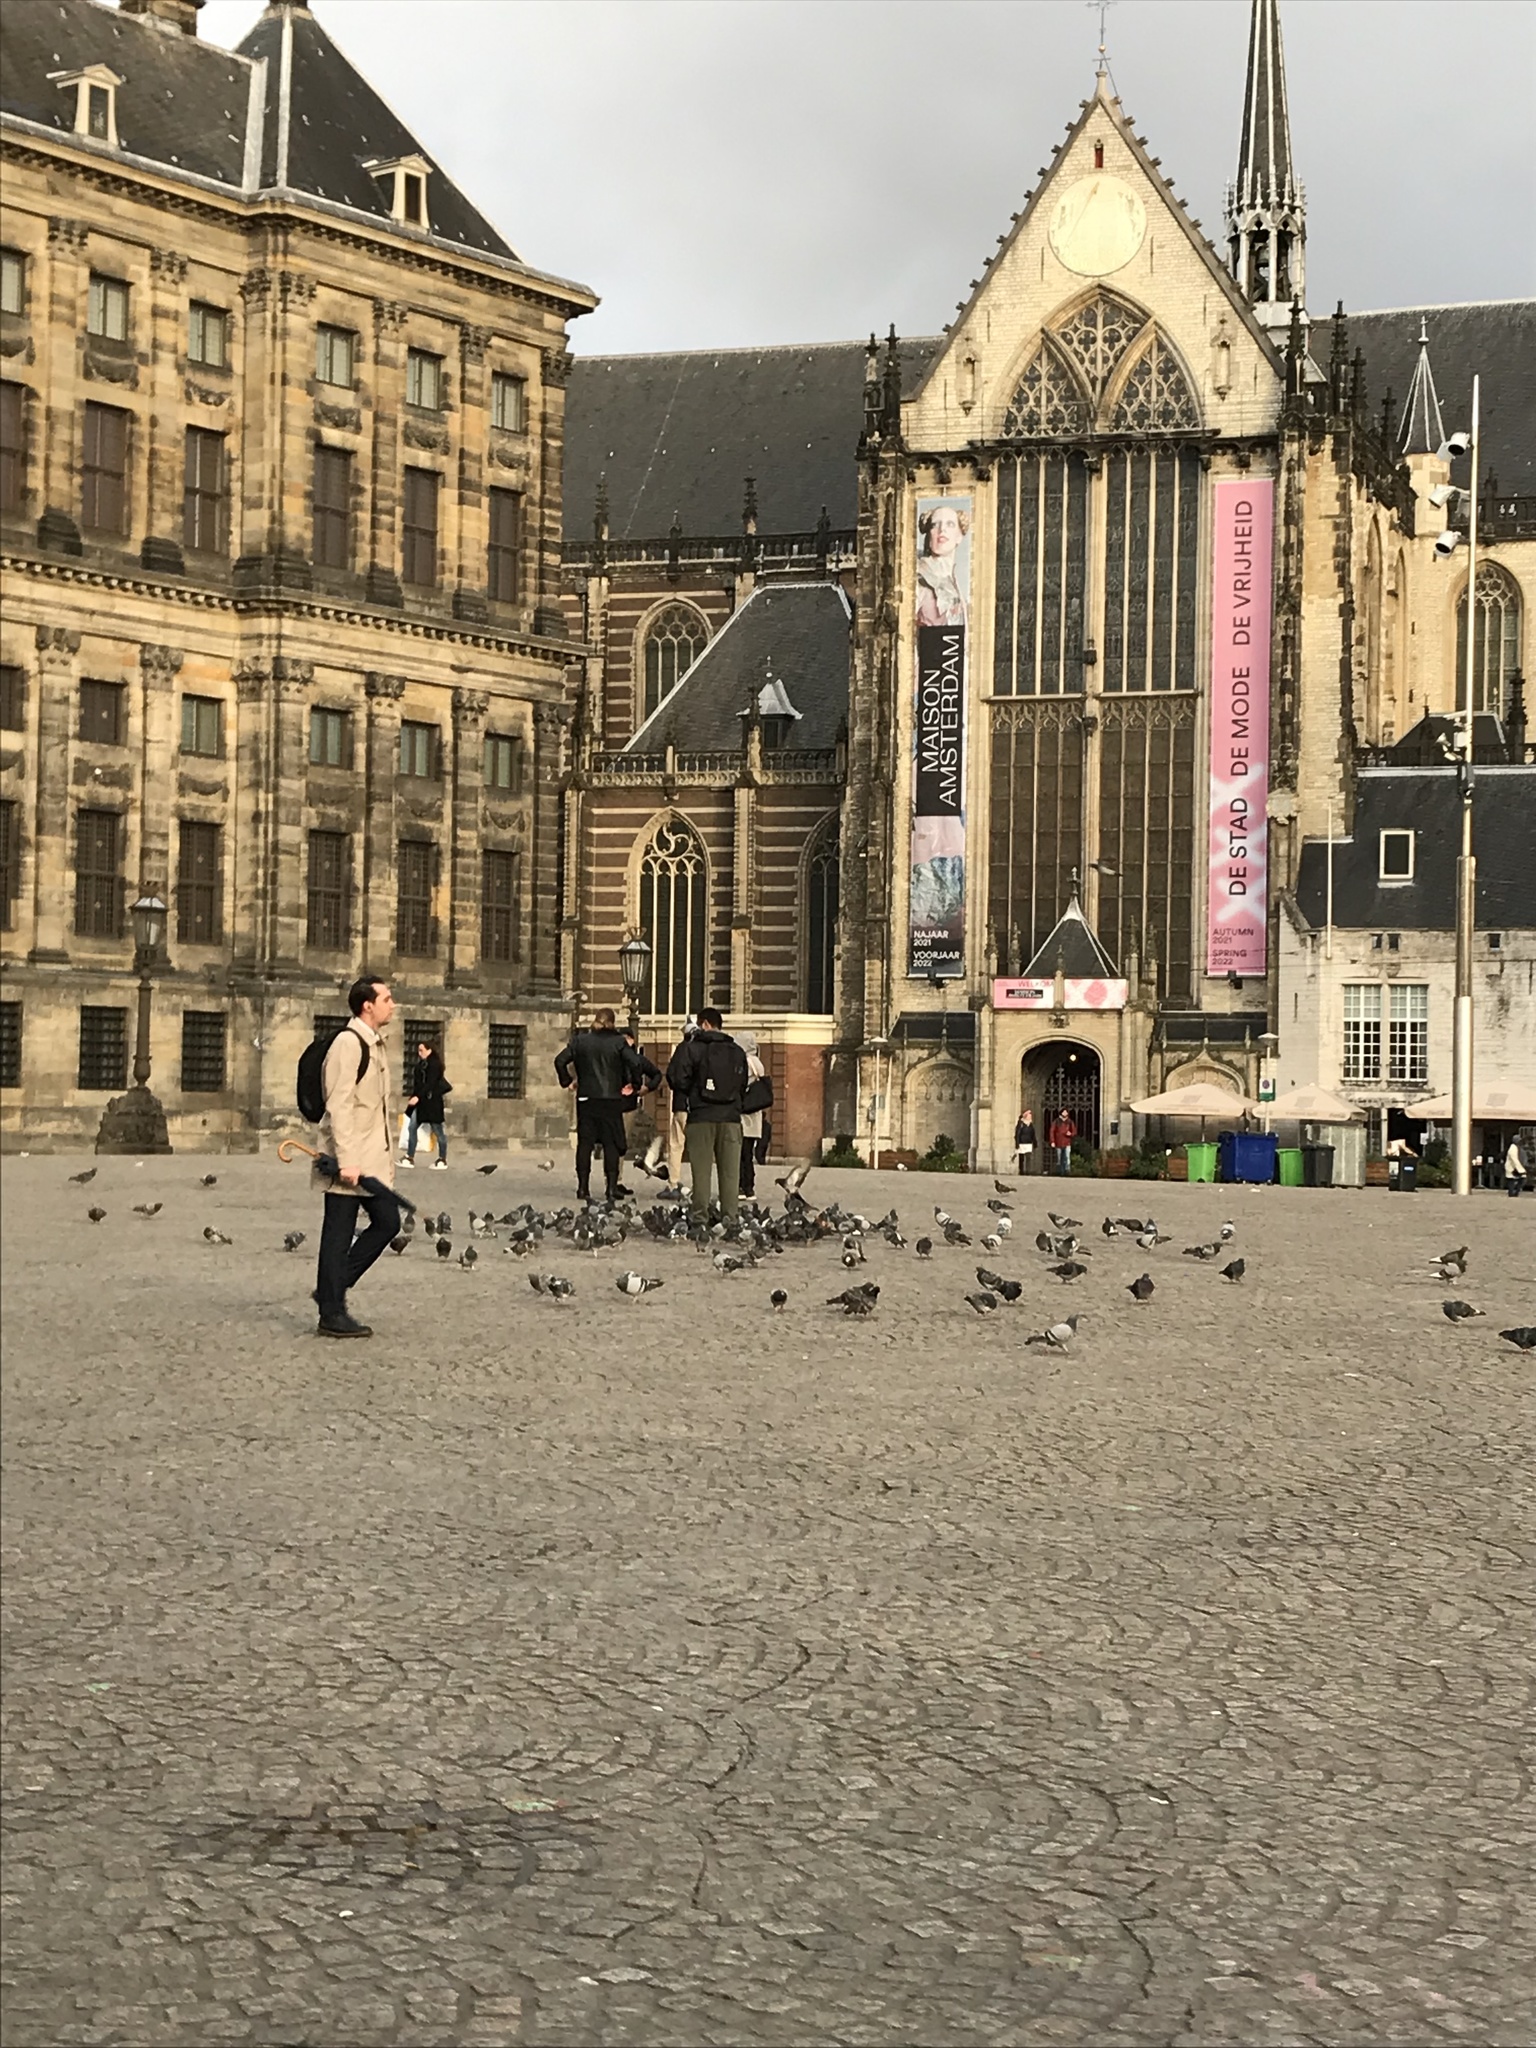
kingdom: Animalia
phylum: Chordata
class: Aves
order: Columbiformes
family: Columbidae
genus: Columba
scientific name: Columba livia
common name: Rock pigeon
